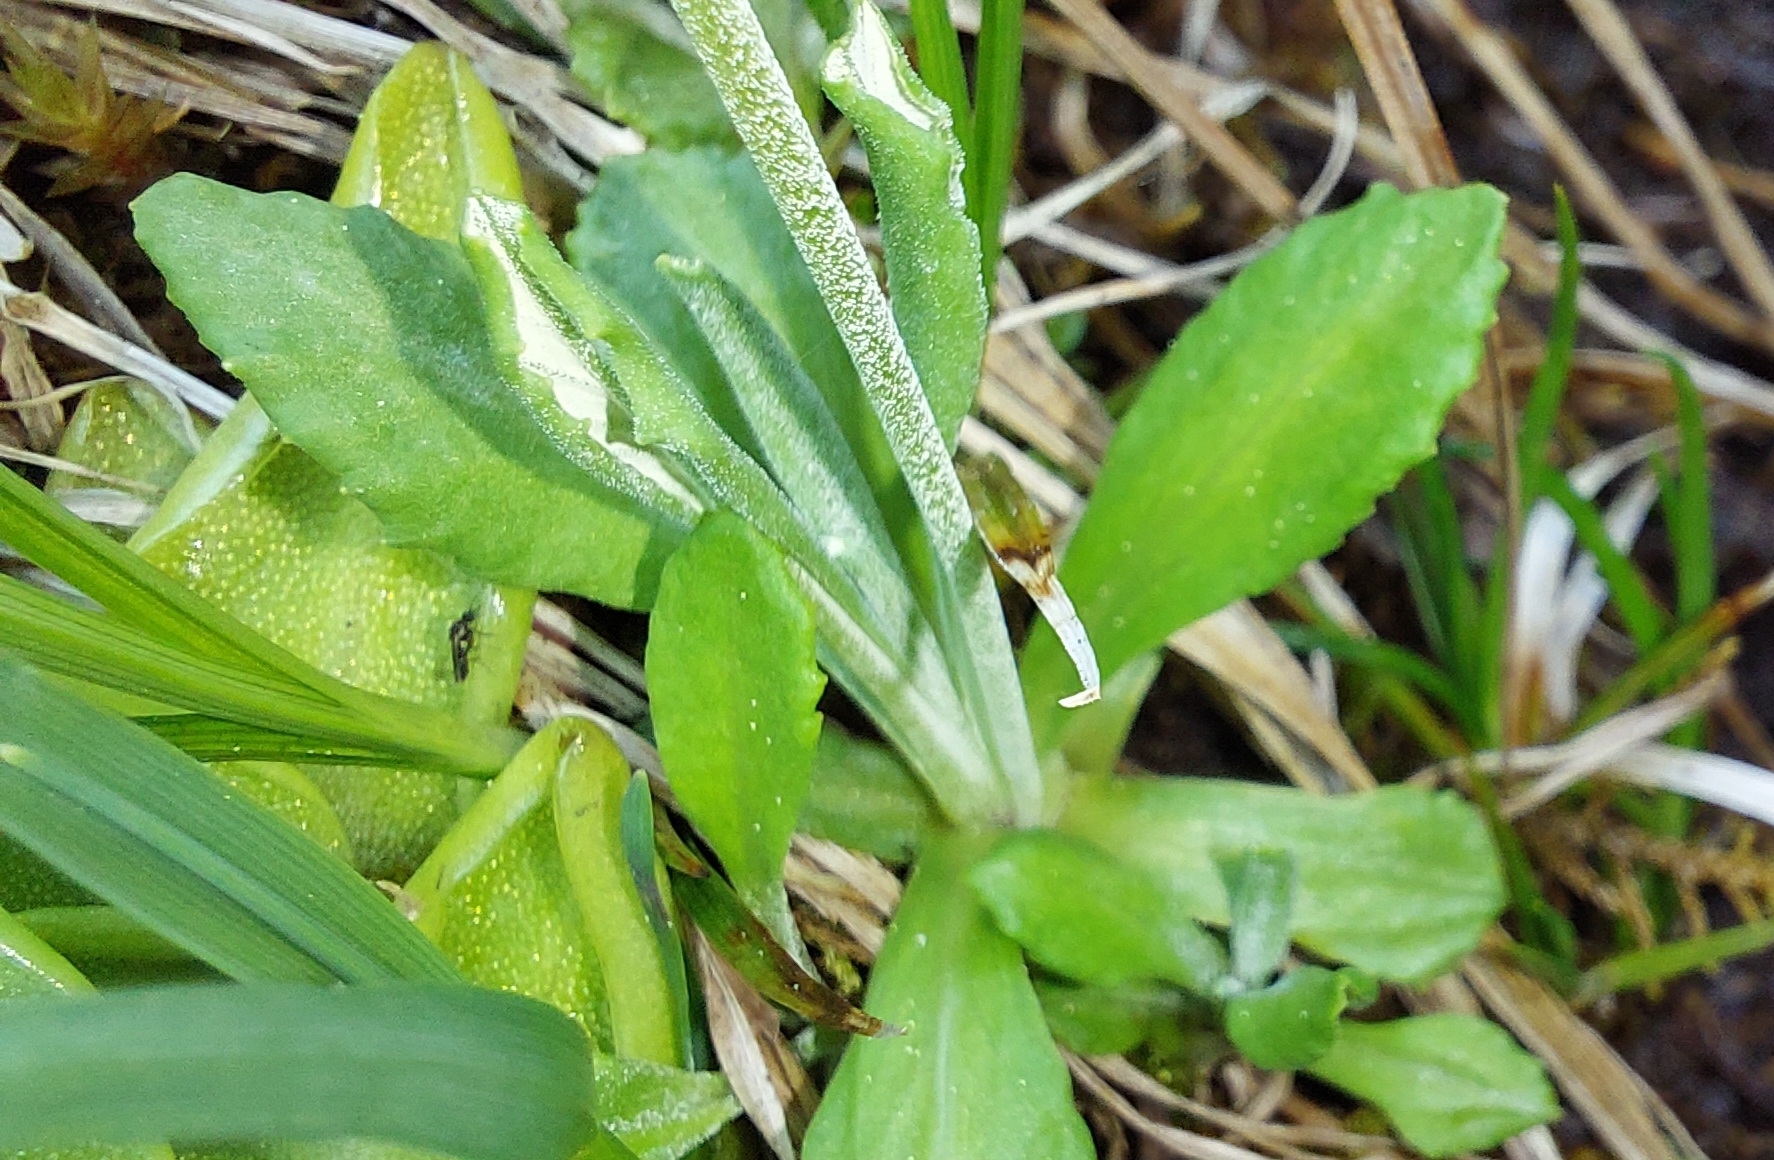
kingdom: Plantae
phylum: Tracheophyta
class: Magnoliopsida
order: Ericales
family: Primulaceae
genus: Primula
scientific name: Primula farinosa
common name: Bird's-eye primrose
